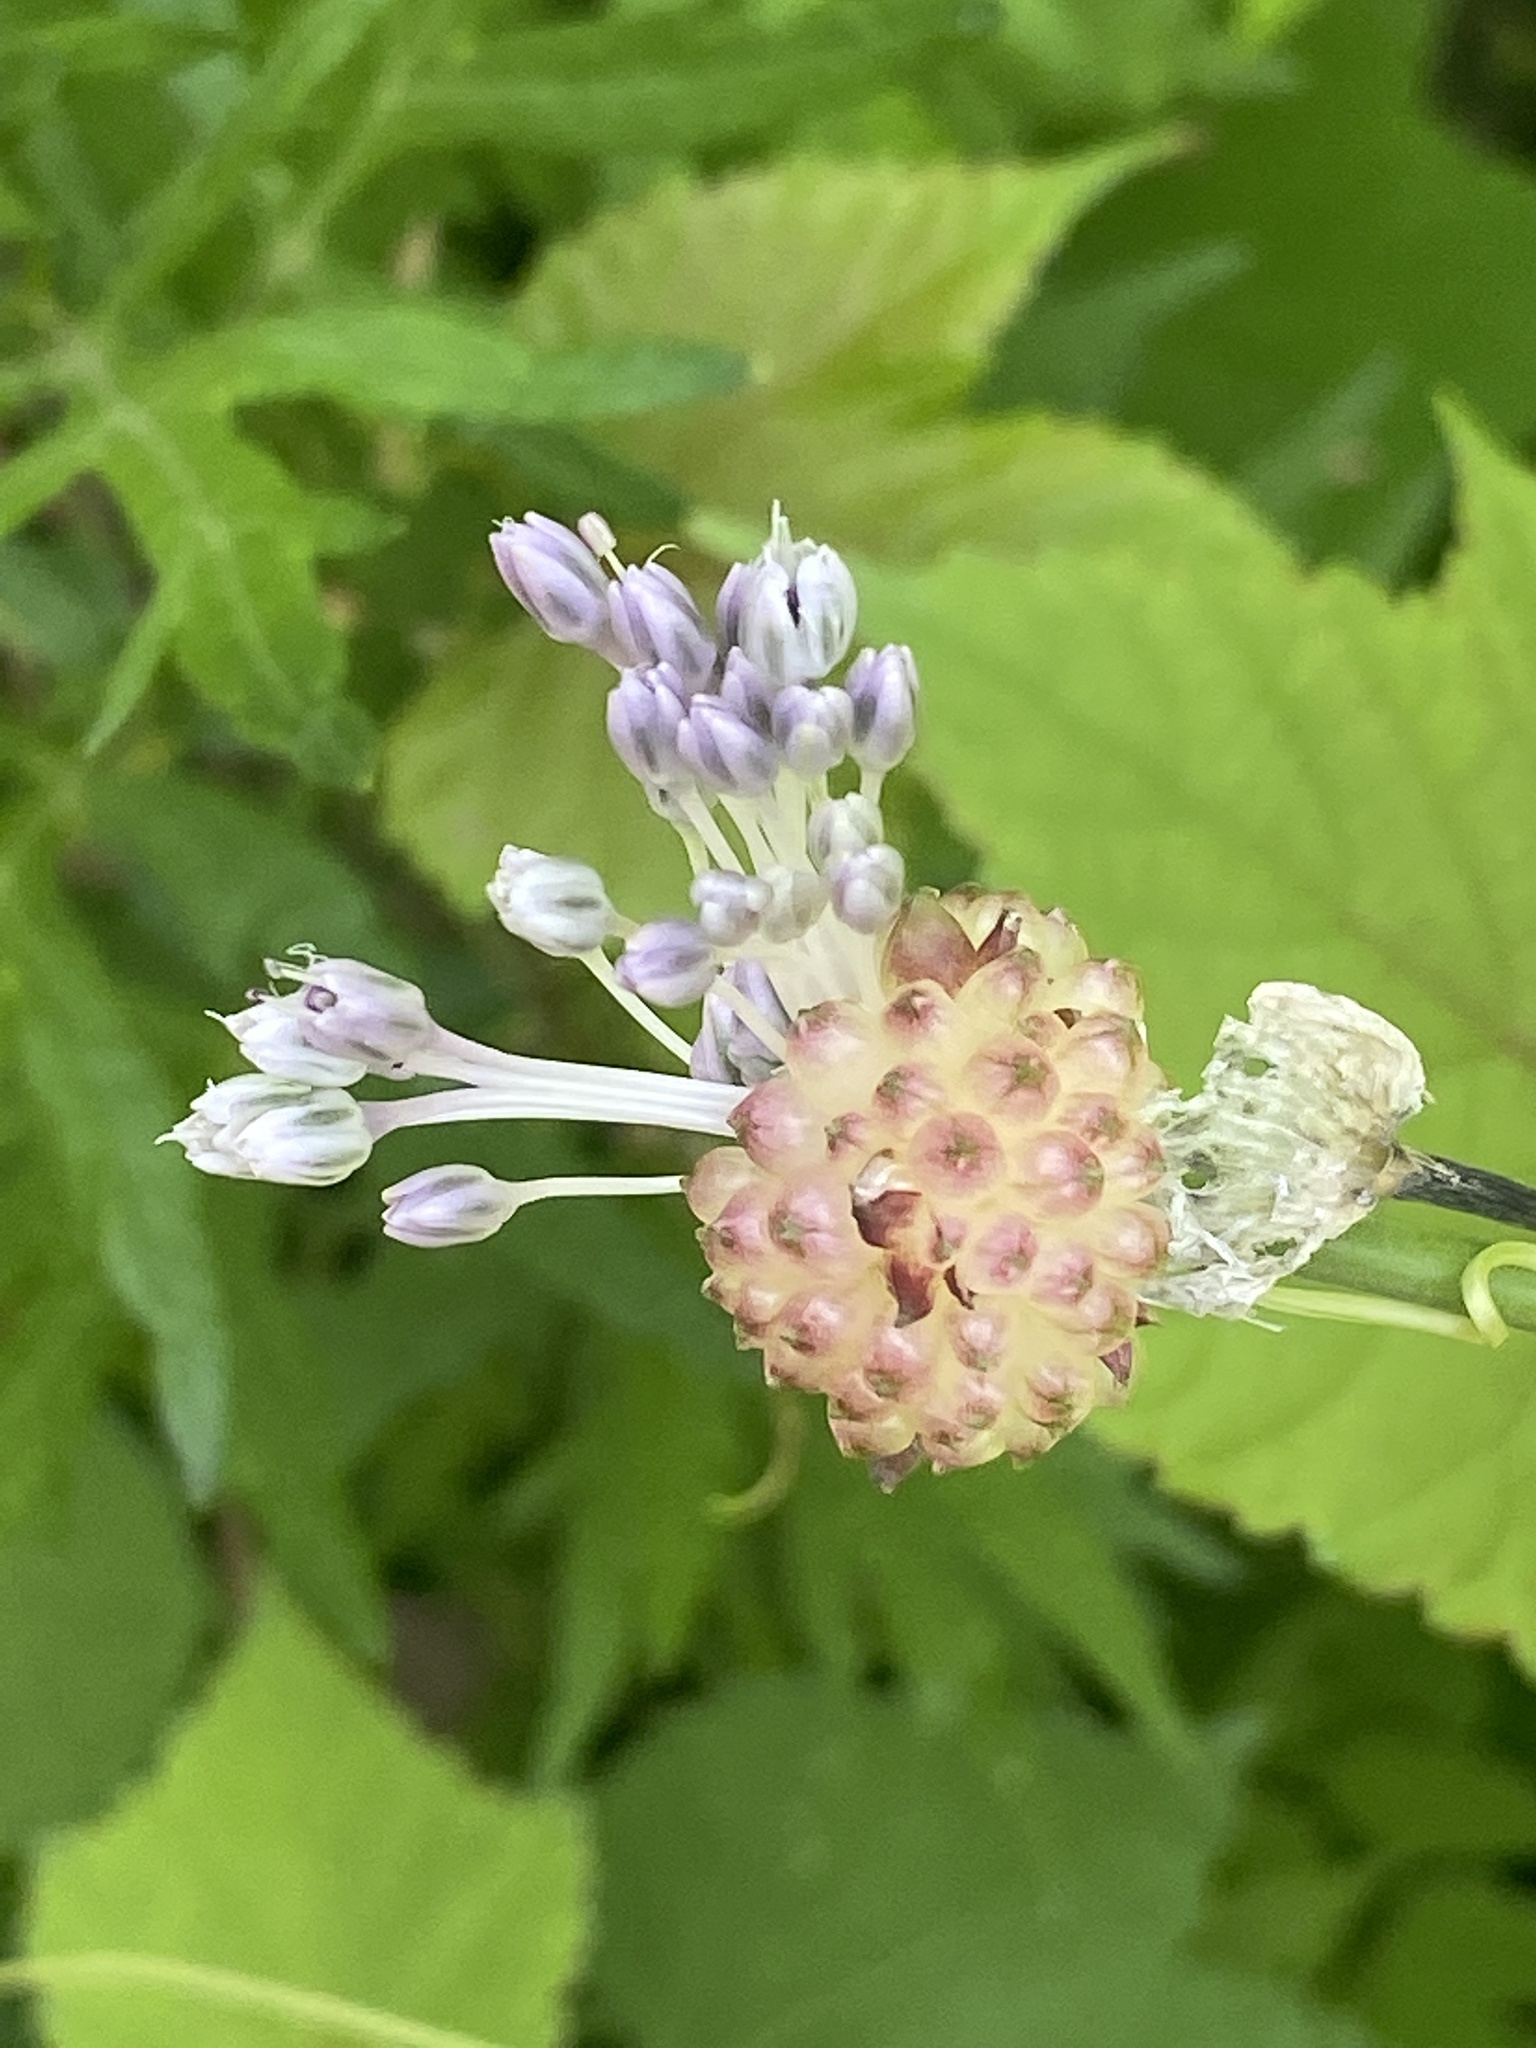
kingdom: Plantae
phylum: Tracheophyta
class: Liliopsida
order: Asparagales
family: Amaryllidaceae
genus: Allium
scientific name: Allium vineale
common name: Crow garlic
